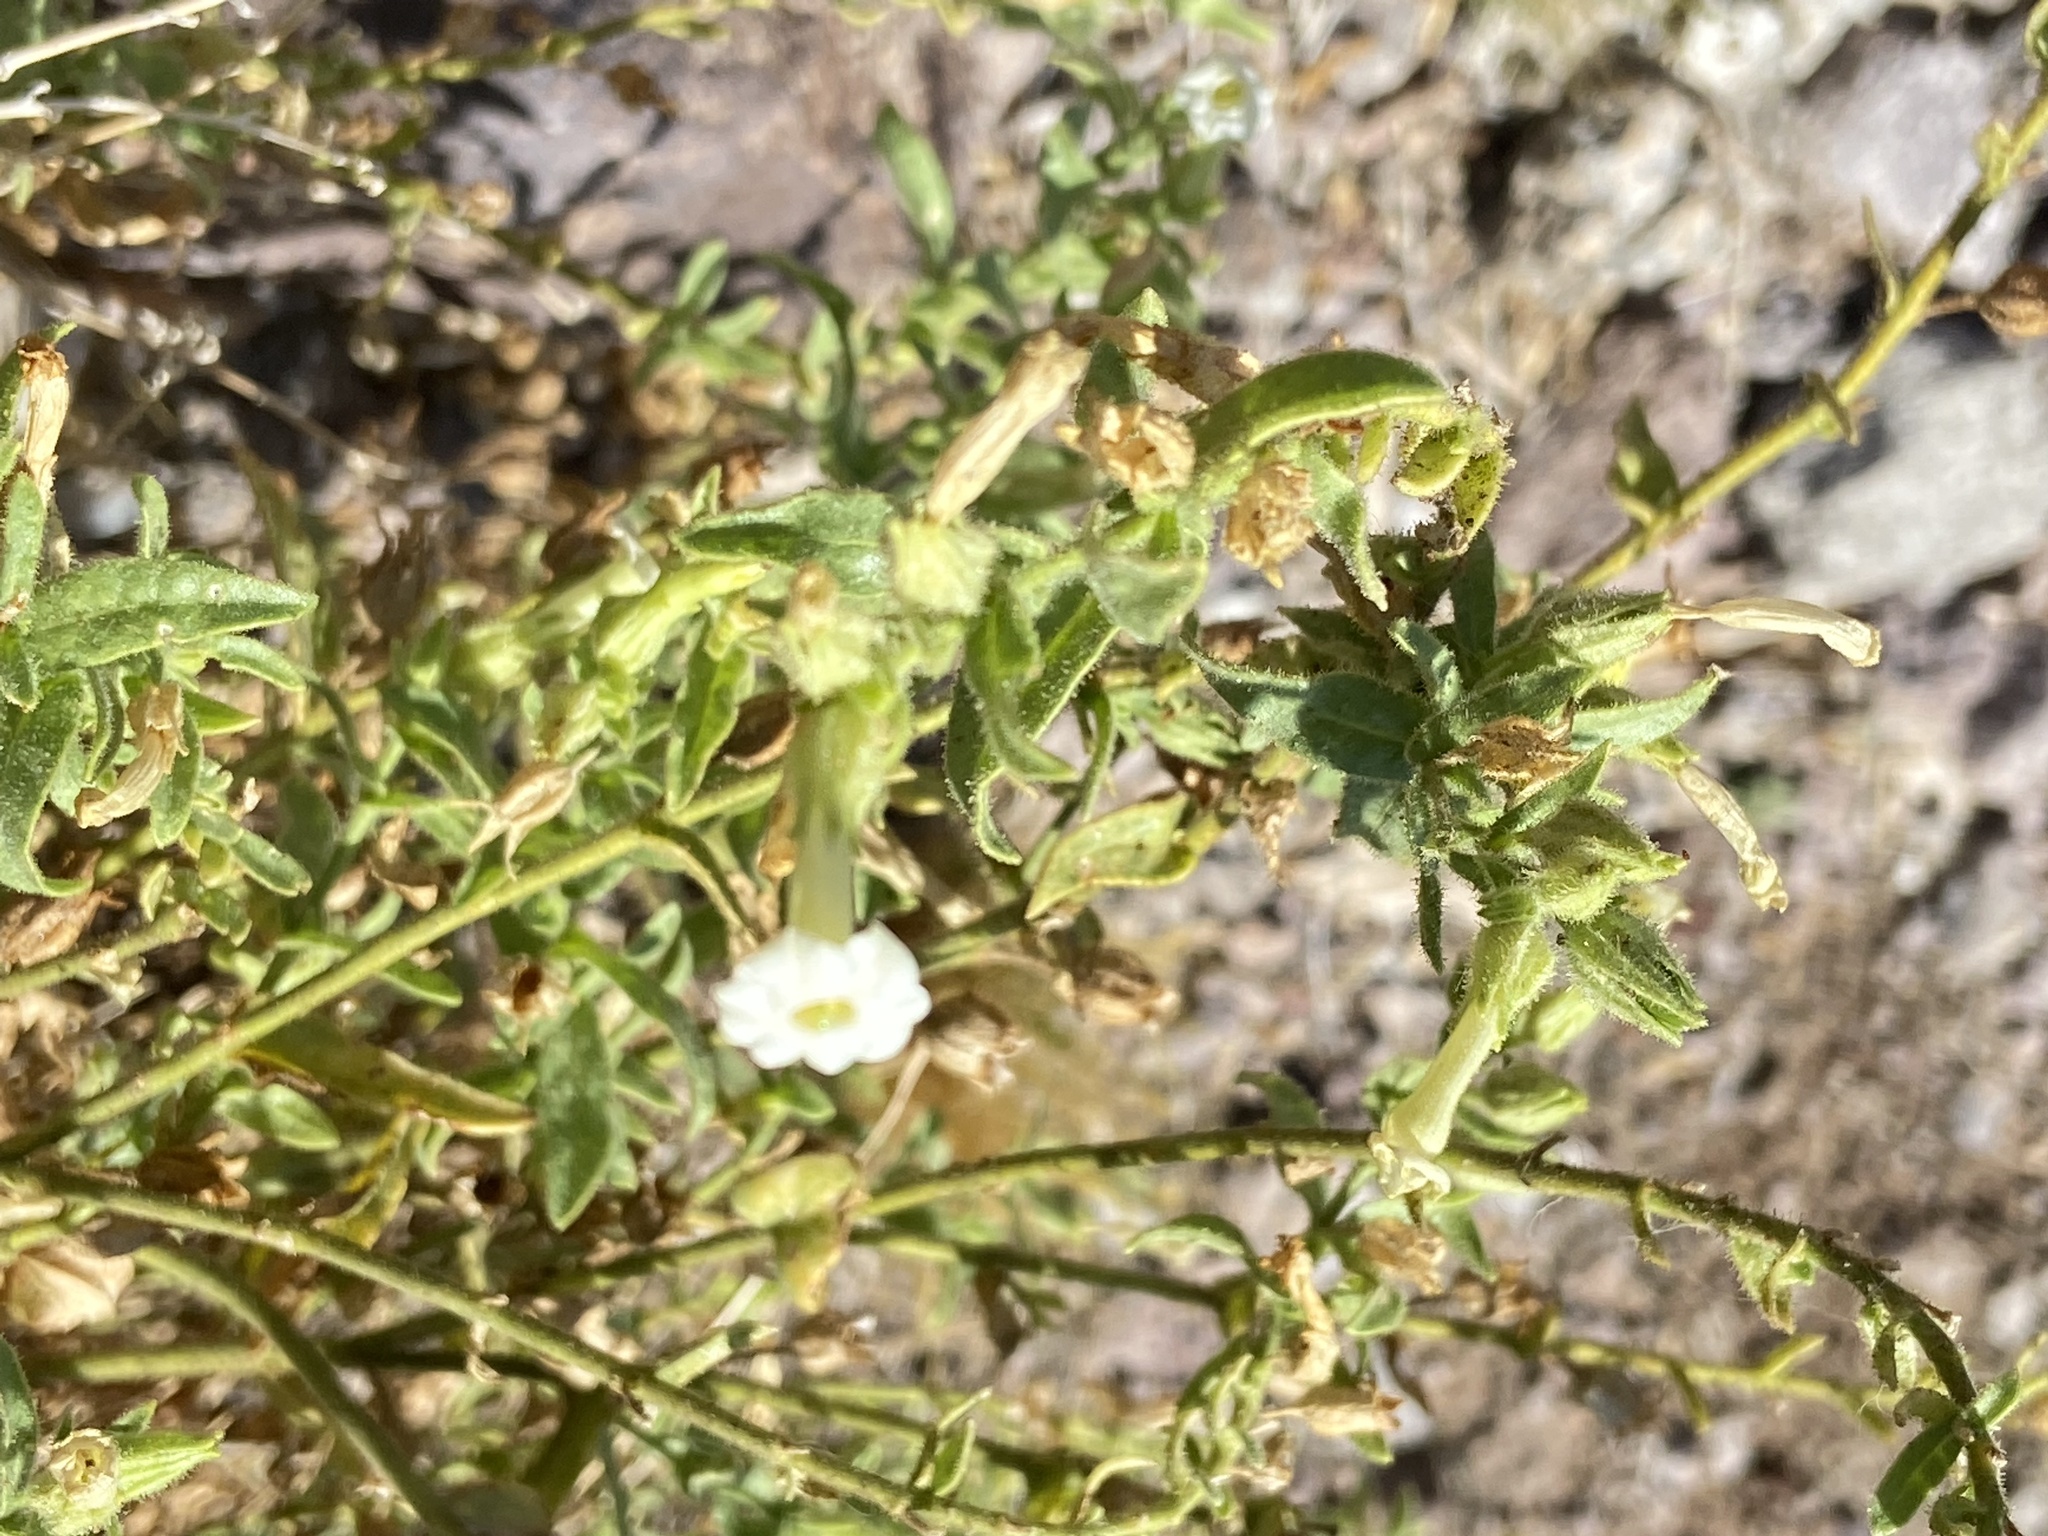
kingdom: Plantae
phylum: Tracheophyta
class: Magnoliopsida
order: Solanales
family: Solanaceae
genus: Nicotiana
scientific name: Nicotiana obtusifolia
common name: Desert tobacco
